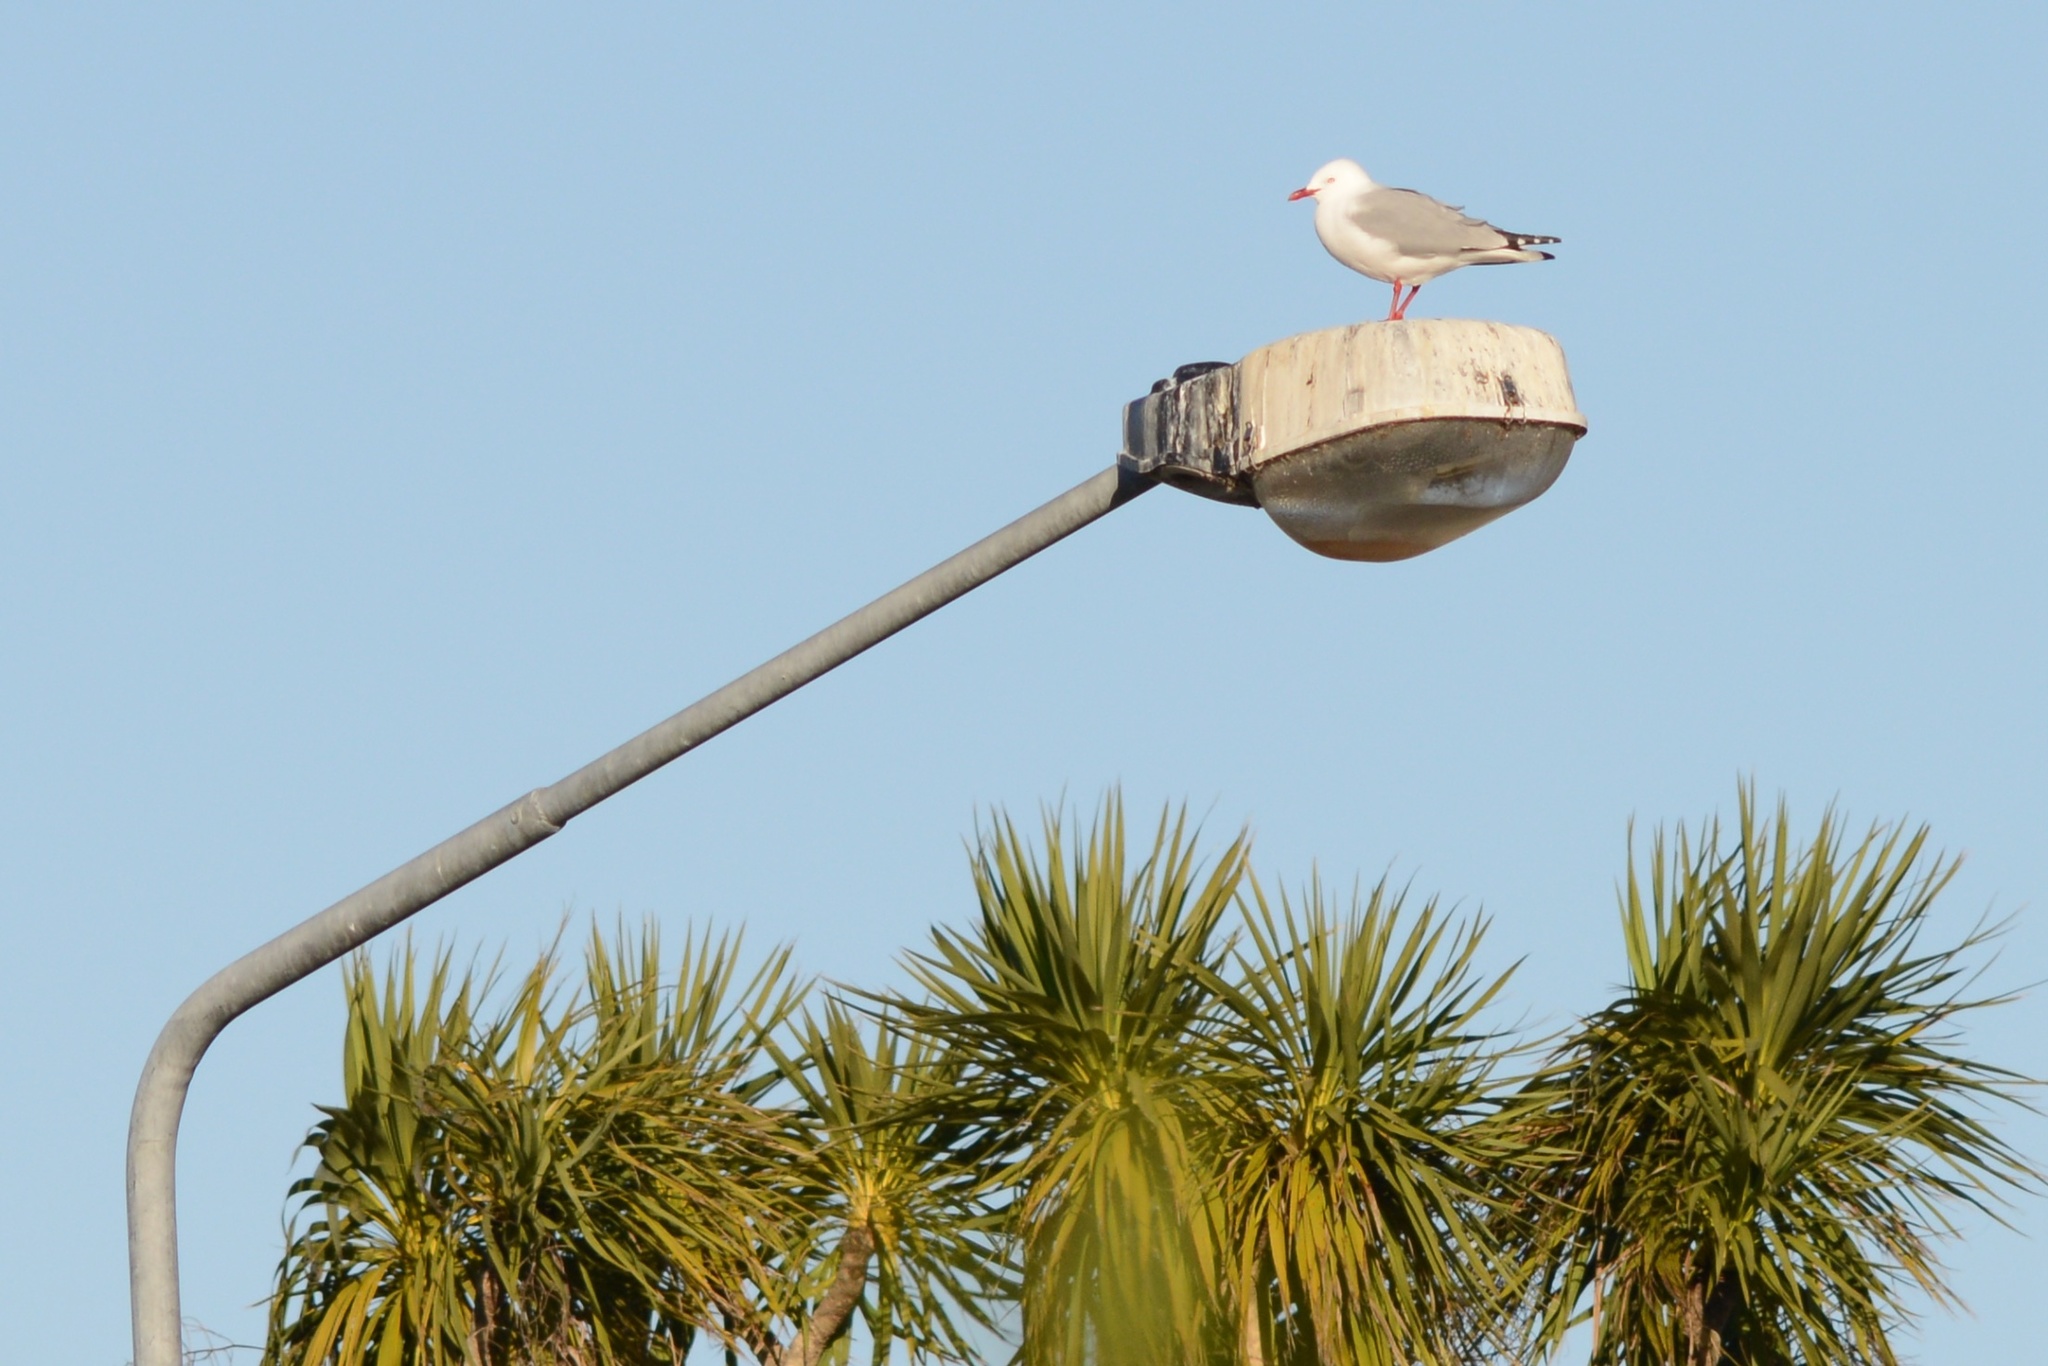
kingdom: Animalia
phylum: Chordata
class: Aves
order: Charadriiformes
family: Laridae
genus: Chroicocephalus
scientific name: Chroicocephalus novaehollandiae
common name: Silver gull
